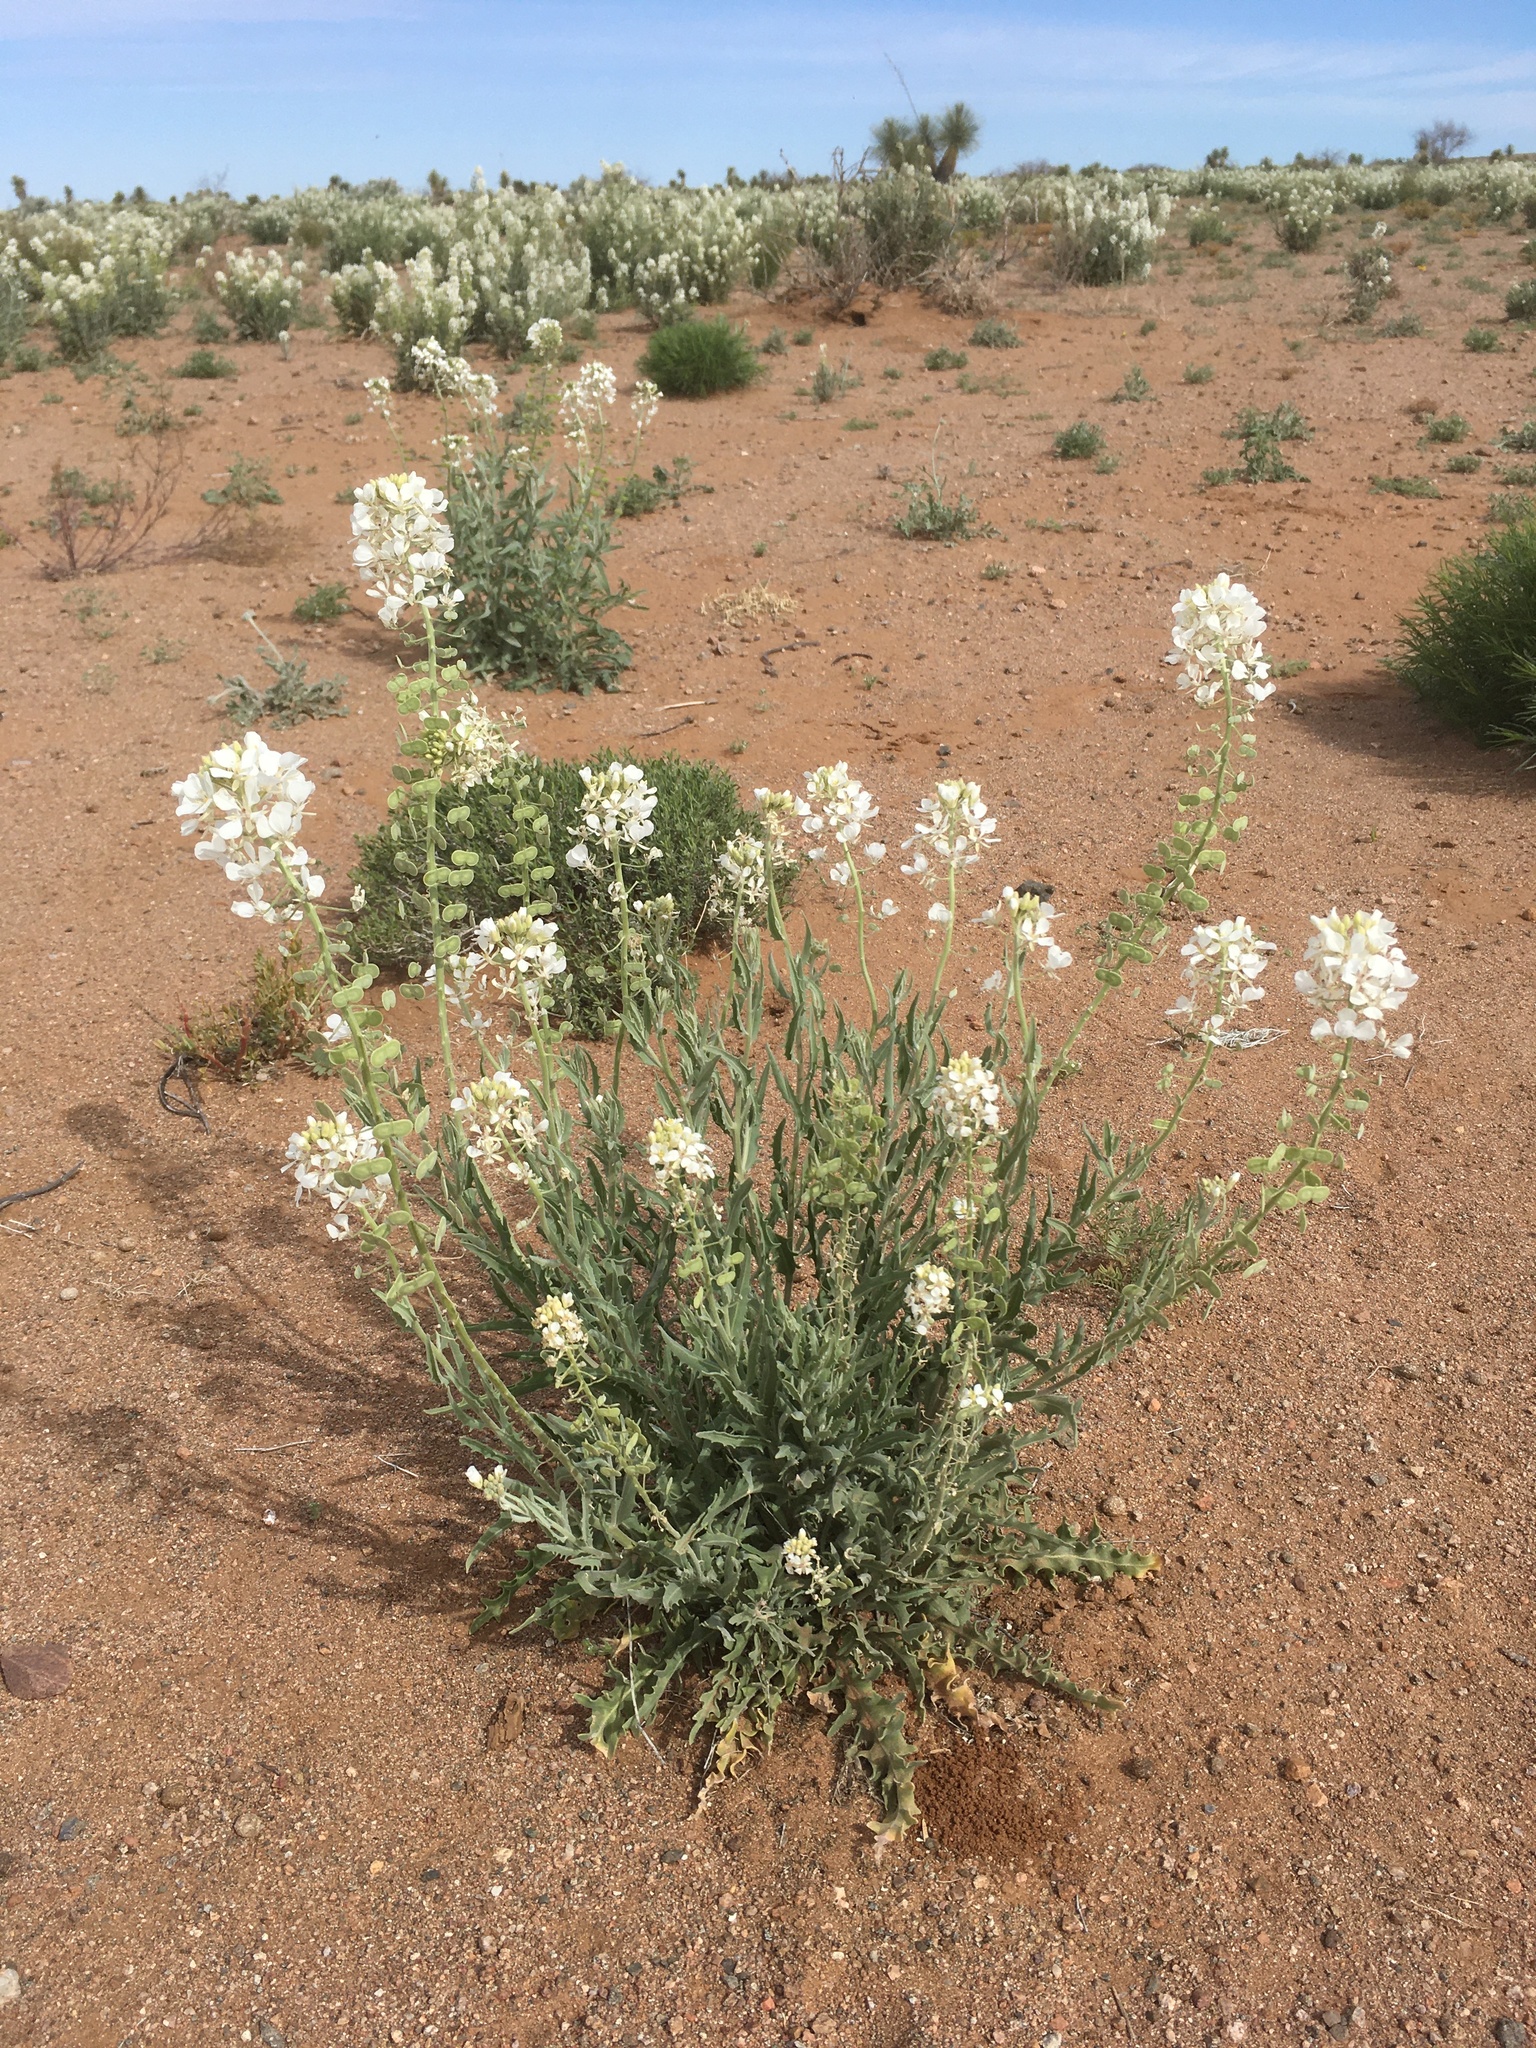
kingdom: Plantae
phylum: Tracheophyta
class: Magnoliopsida
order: Brassicales
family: Brassicaceae
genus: Dimorphocarpa
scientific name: Dimorphocarpa wislizenii
